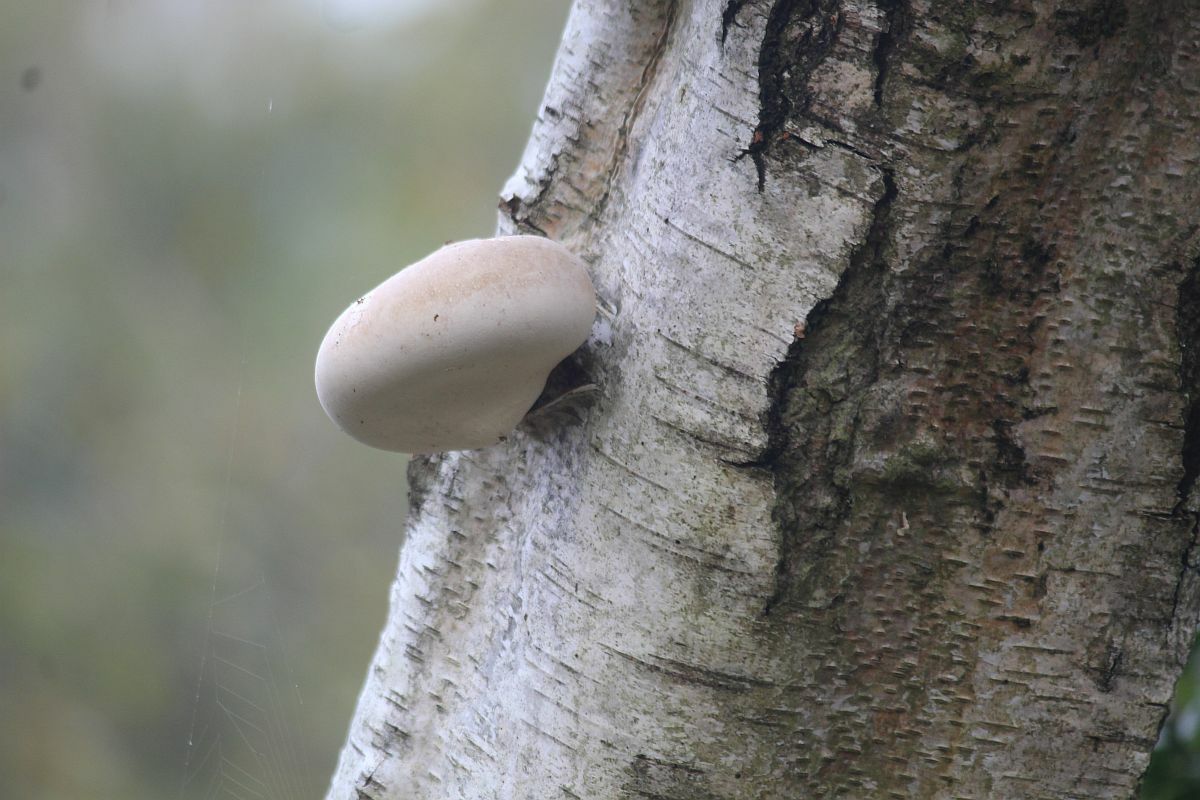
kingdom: Fungi
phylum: Basidiomycota
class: Agaricomycetes
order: Polyporales
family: Fomitopsidaceae
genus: Fomitopsis
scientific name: Fomitopsis betulina
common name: Birch polypore
